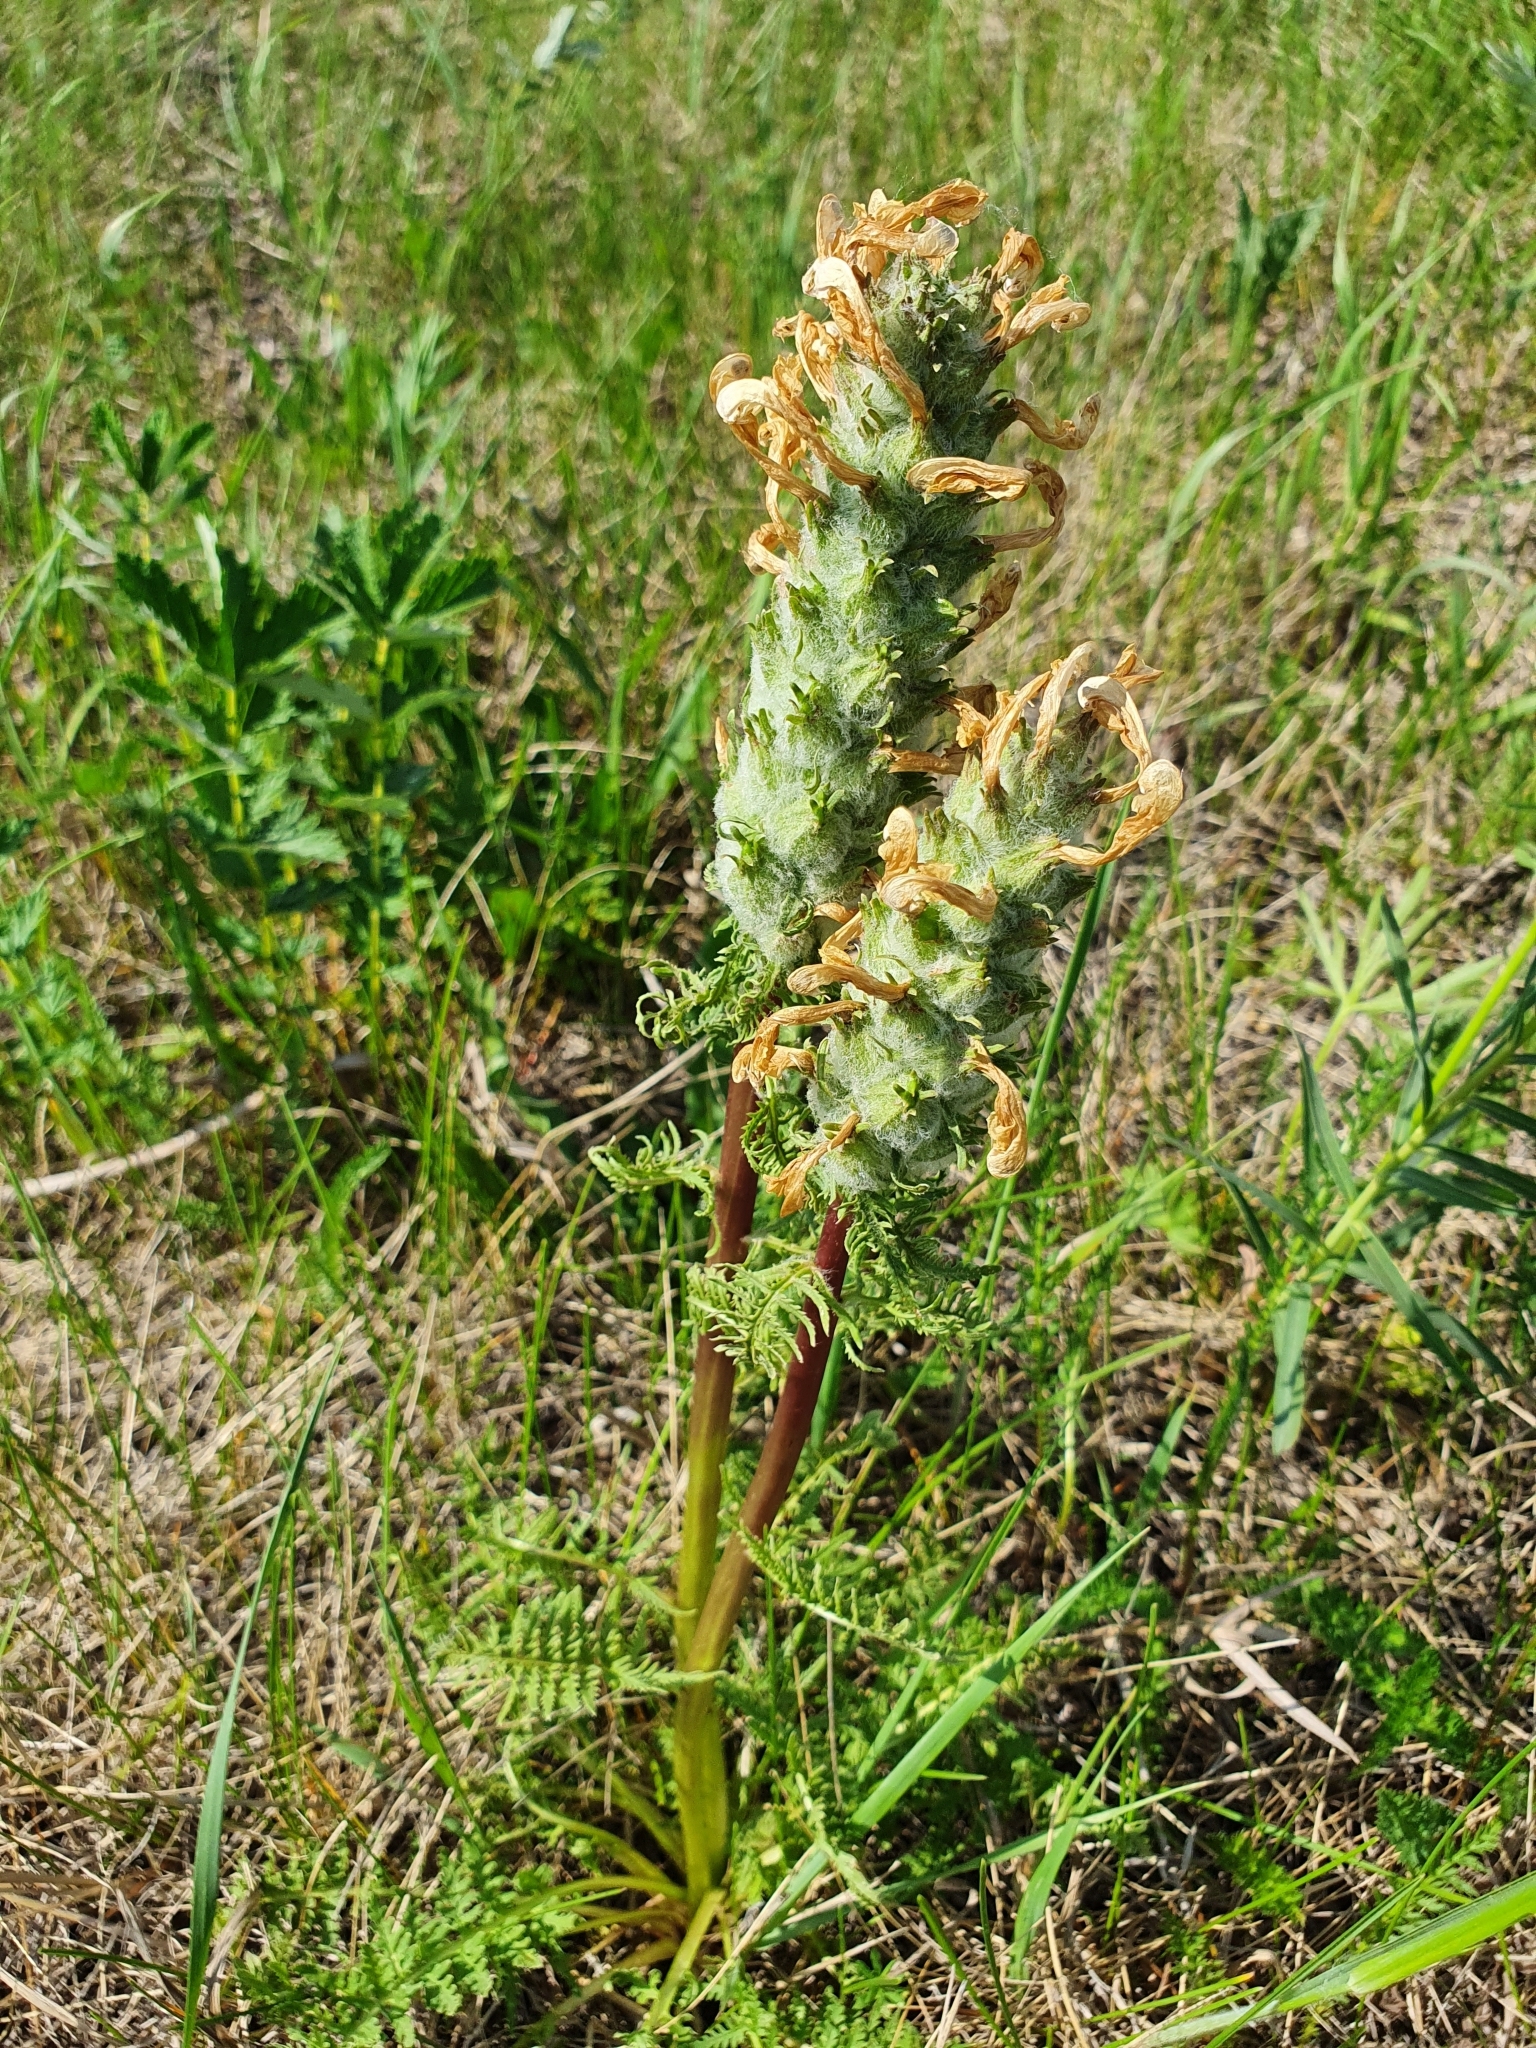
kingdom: Plantae
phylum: Tracheophyta
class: Magnoliopsida
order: Lamiales
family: Orobanchaceae
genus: Pedicularis
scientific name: Pedicularis dasystachys
